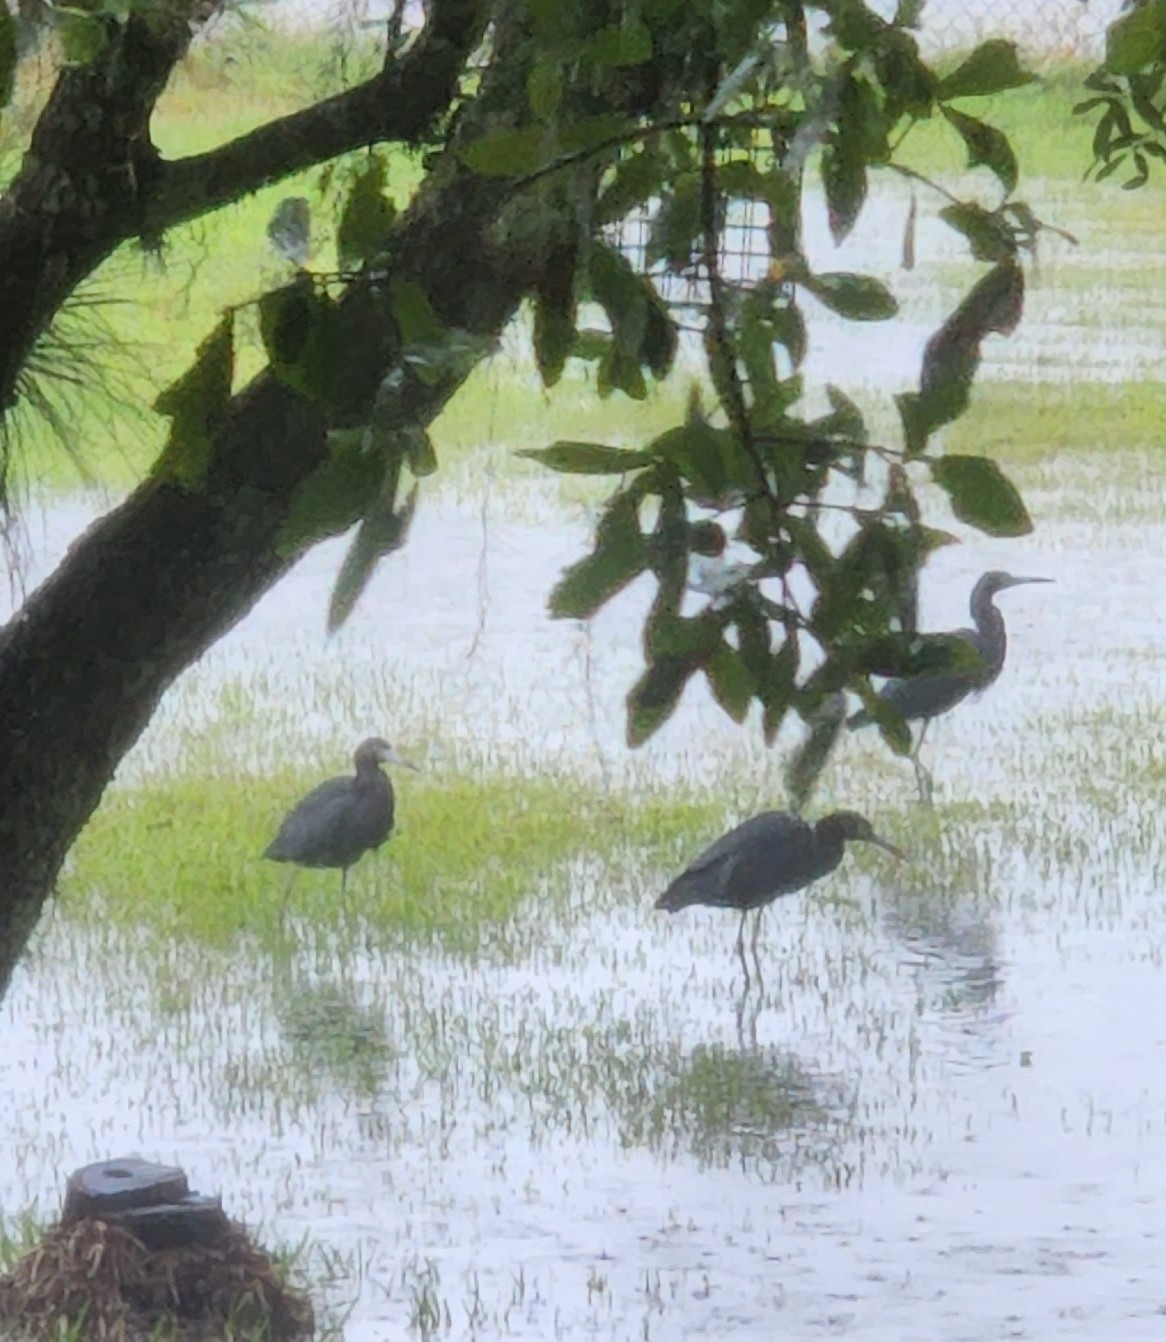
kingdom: Animalia
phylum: Chordata
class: Aves
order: Pelecaniformes
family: Ardeidae
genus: Egretta
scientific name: Egretta caerulea
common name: Little blue heron
